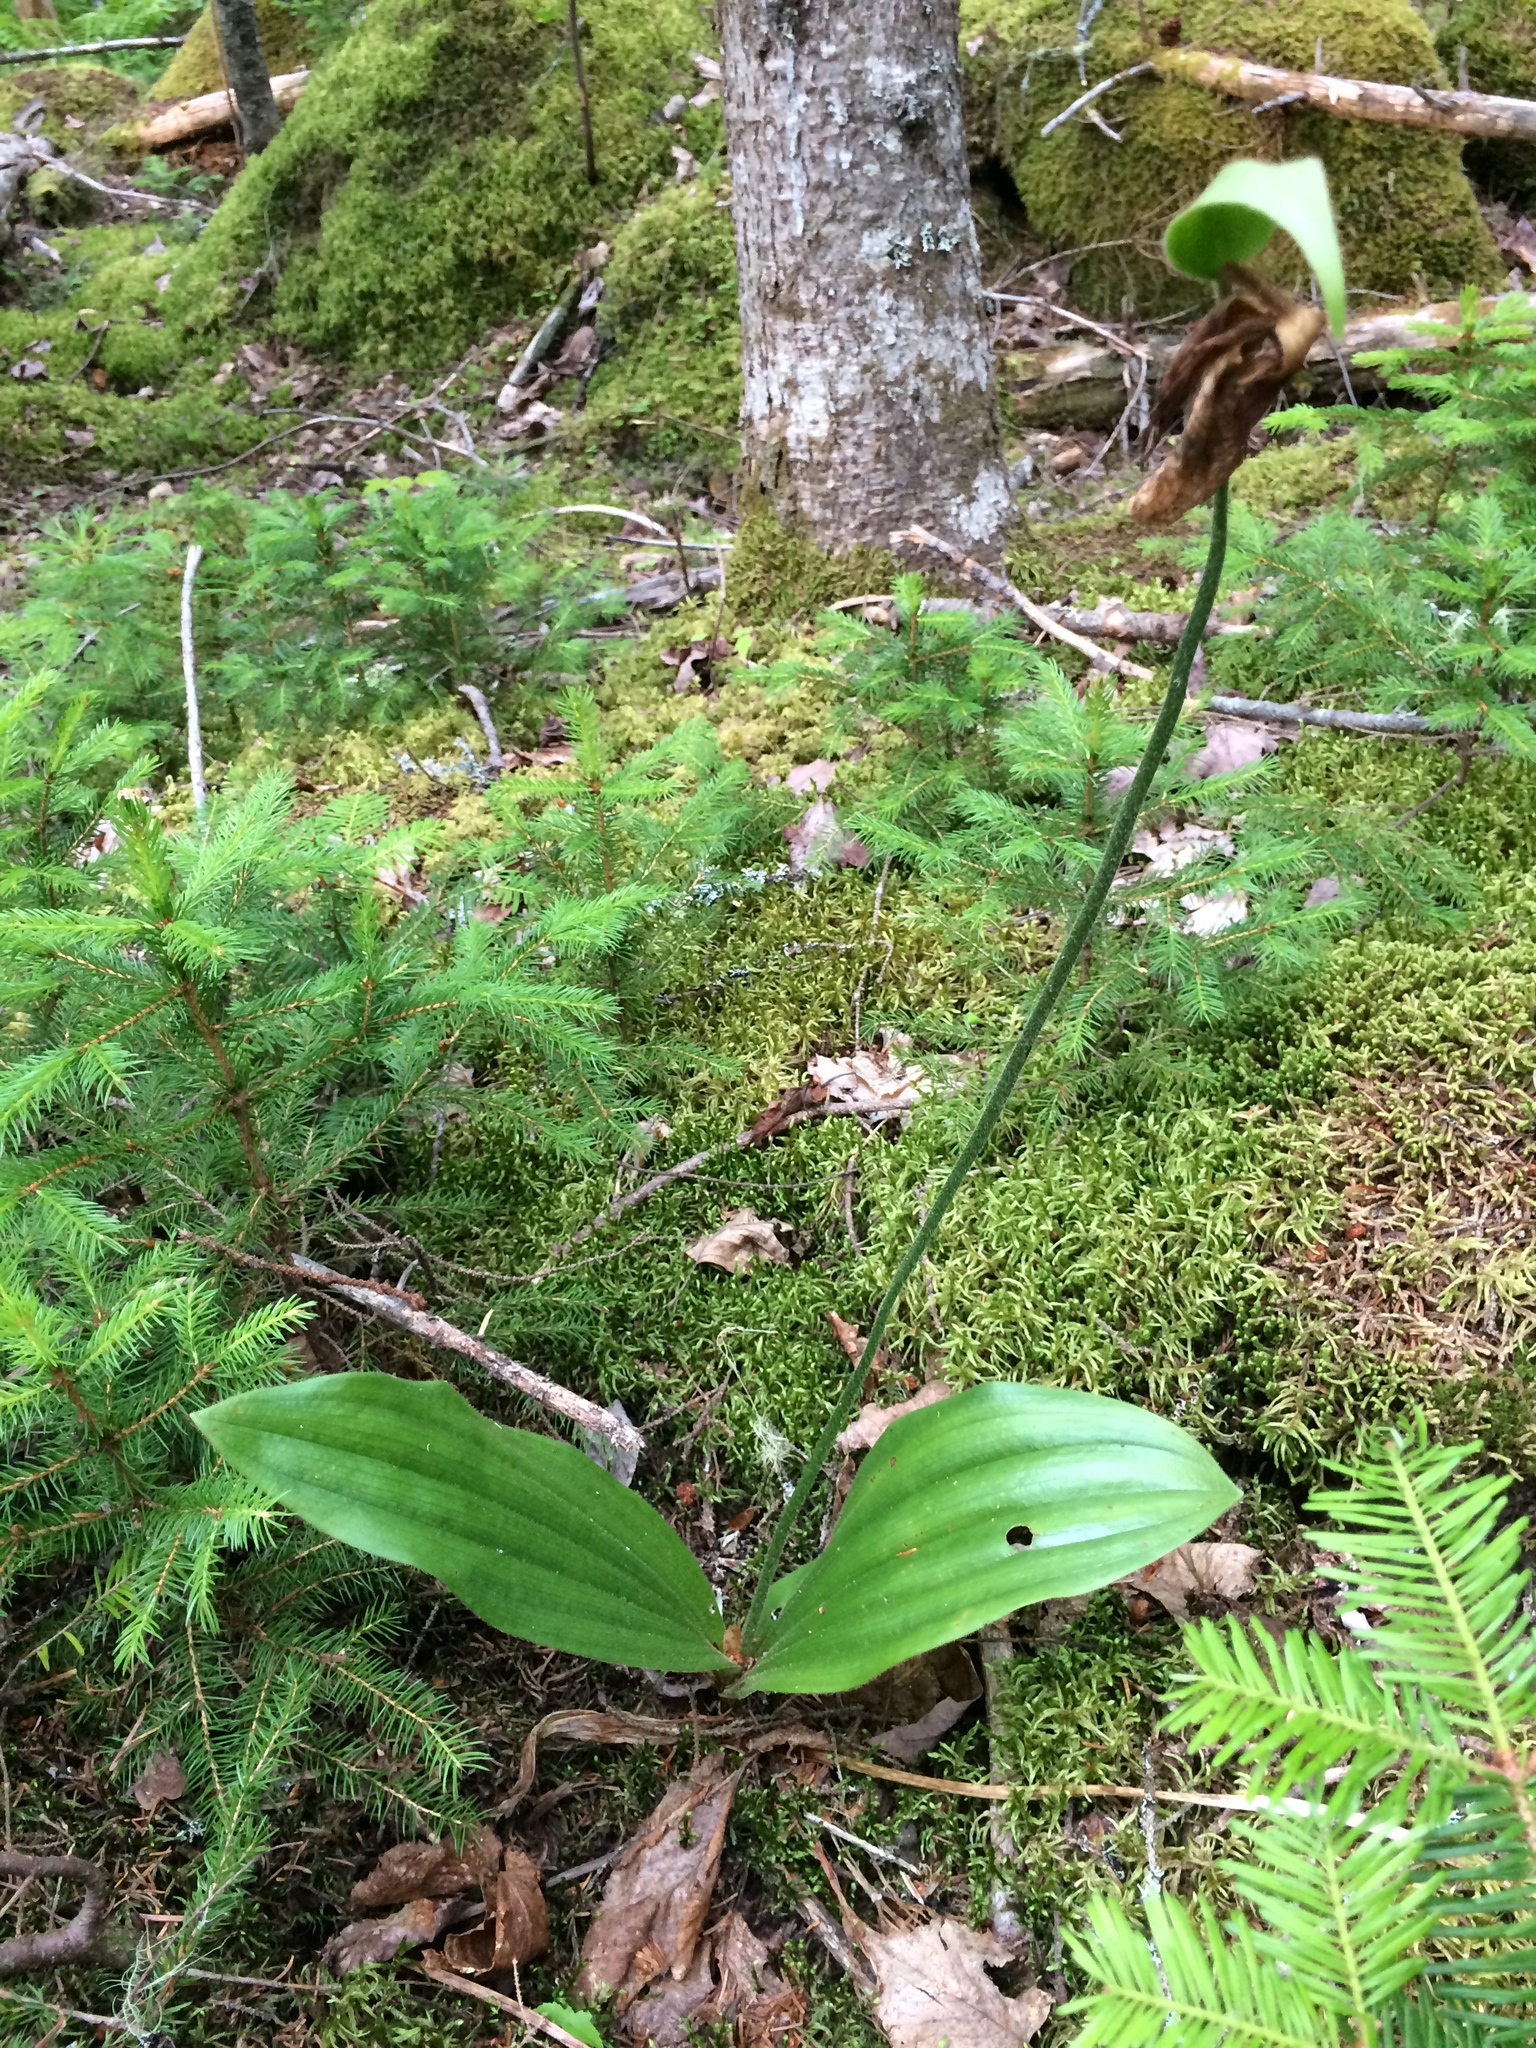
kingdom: Plantae
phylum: Tracheophyta
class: Liliopsida
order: Asparagales
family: Orchidaceae
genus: Cypripedium
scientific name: Cypripedium acaule
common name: Pink lady's-slipper
